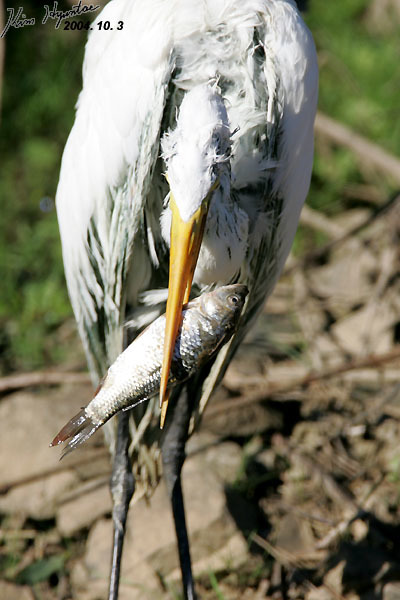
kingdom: Animalia
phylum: Chordata
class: Aves
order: Pelecaniformes
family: Ardeidae
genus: Ardea
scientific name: Ardea alba
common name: Great egret
